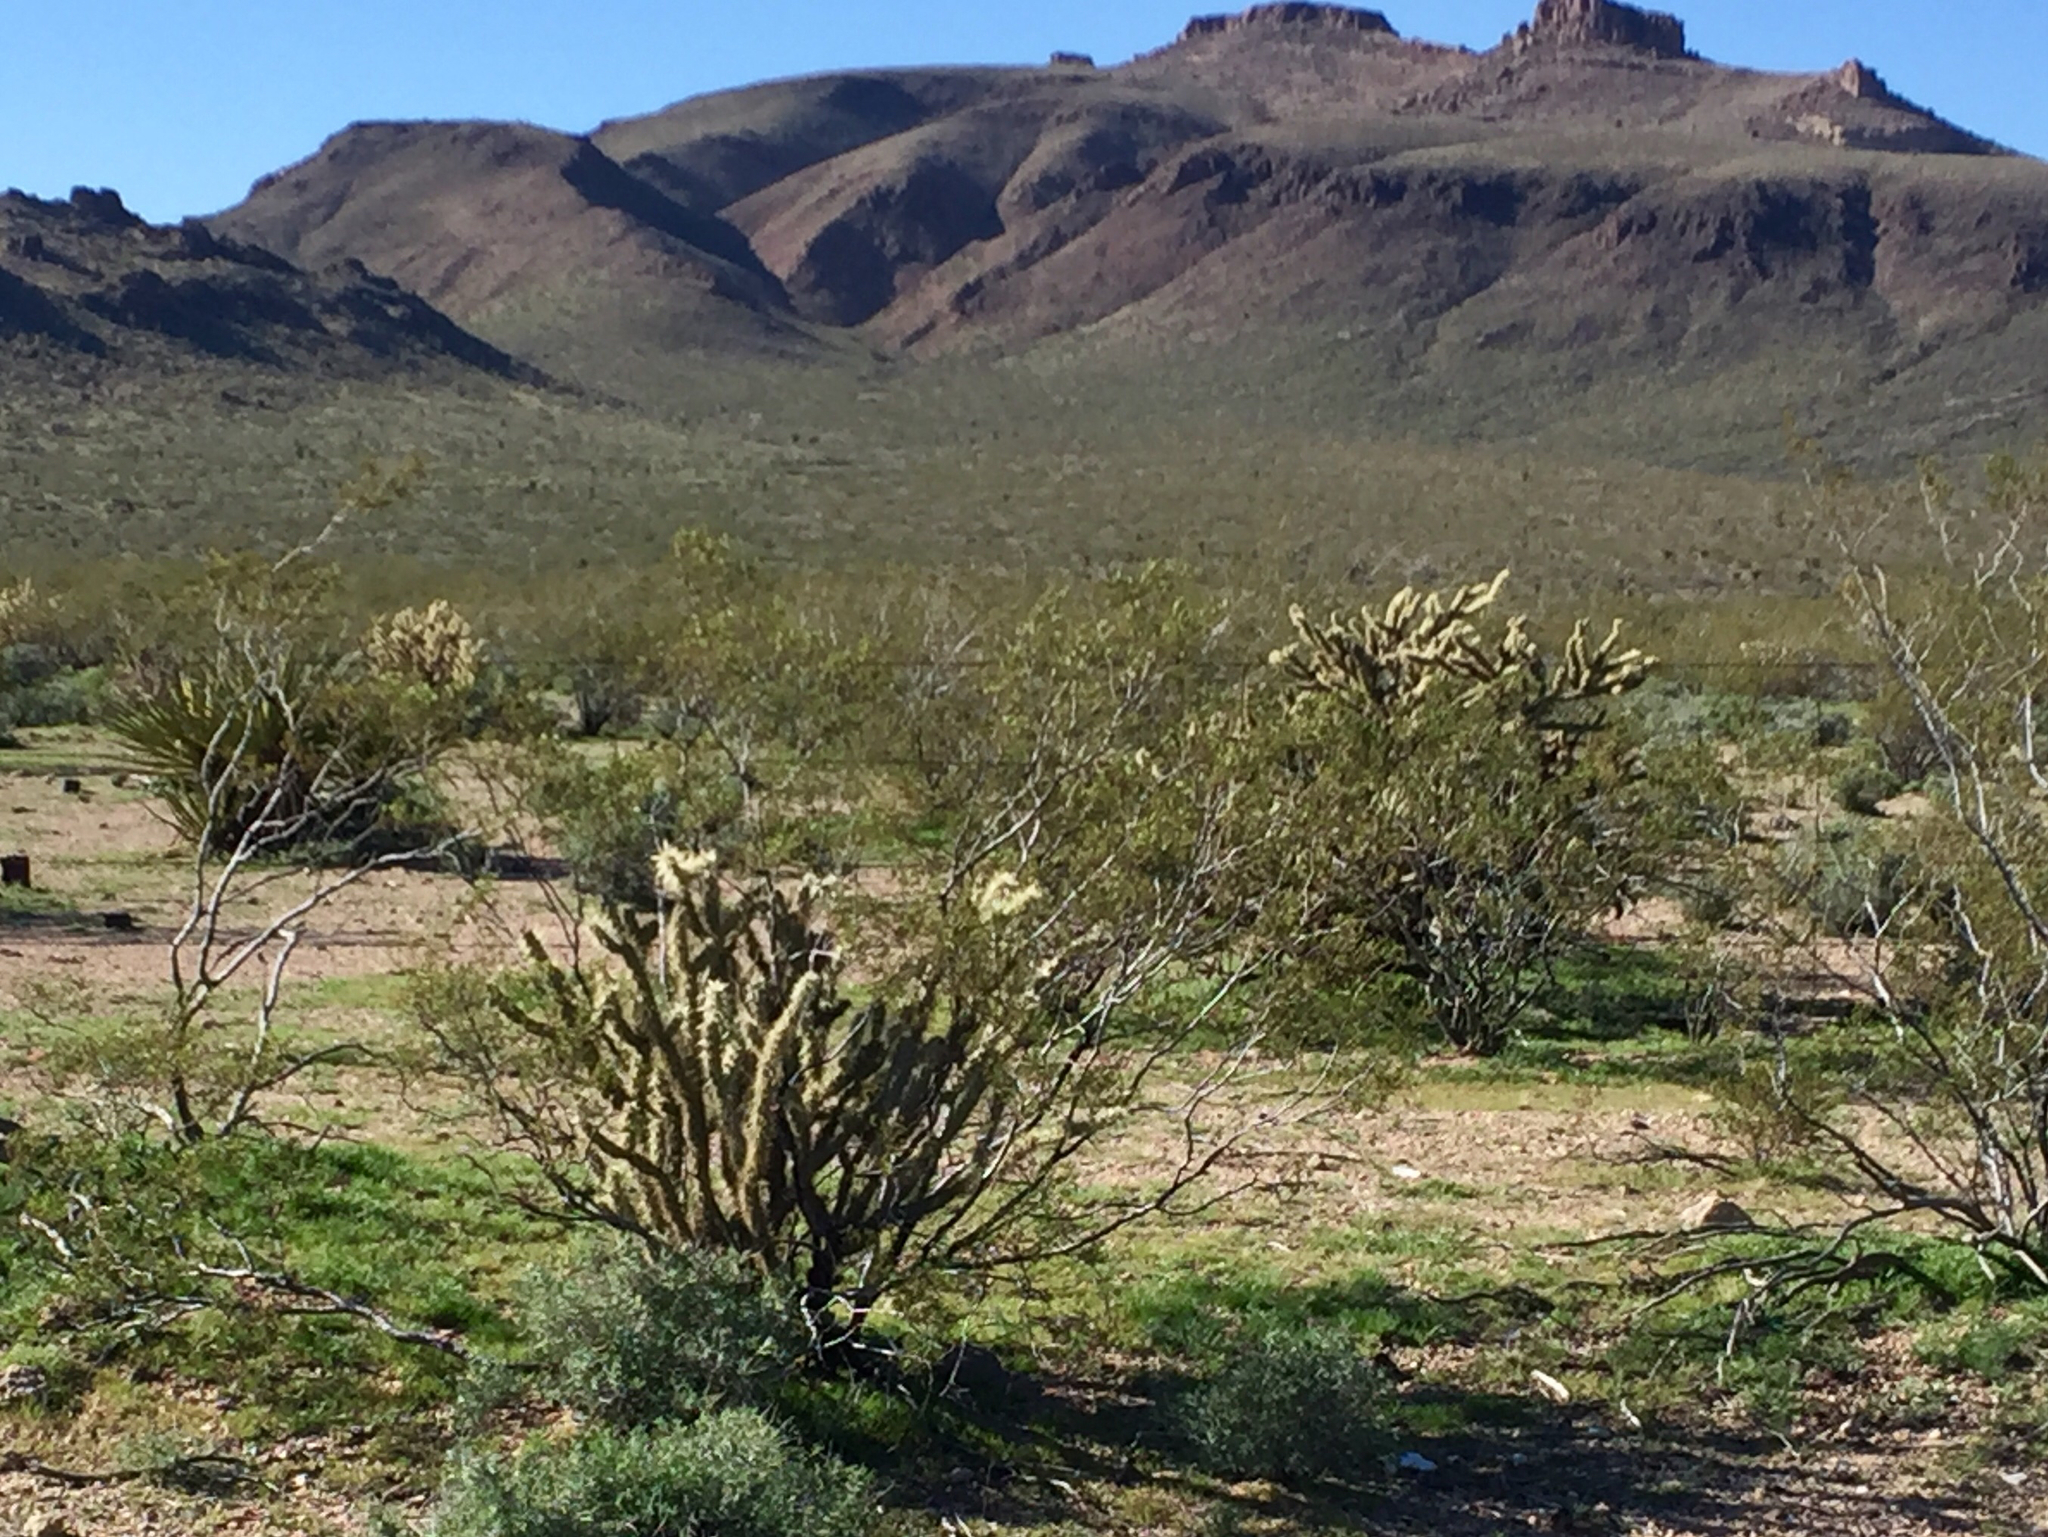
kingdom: Plantae
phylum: Tracheophyta
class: Magnoliopsida
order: Caryophyllales
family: Cactaceae
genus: Cylindropuntia
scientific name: Cylindropuntia acanthocarpa
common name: Buckhorn cholla
